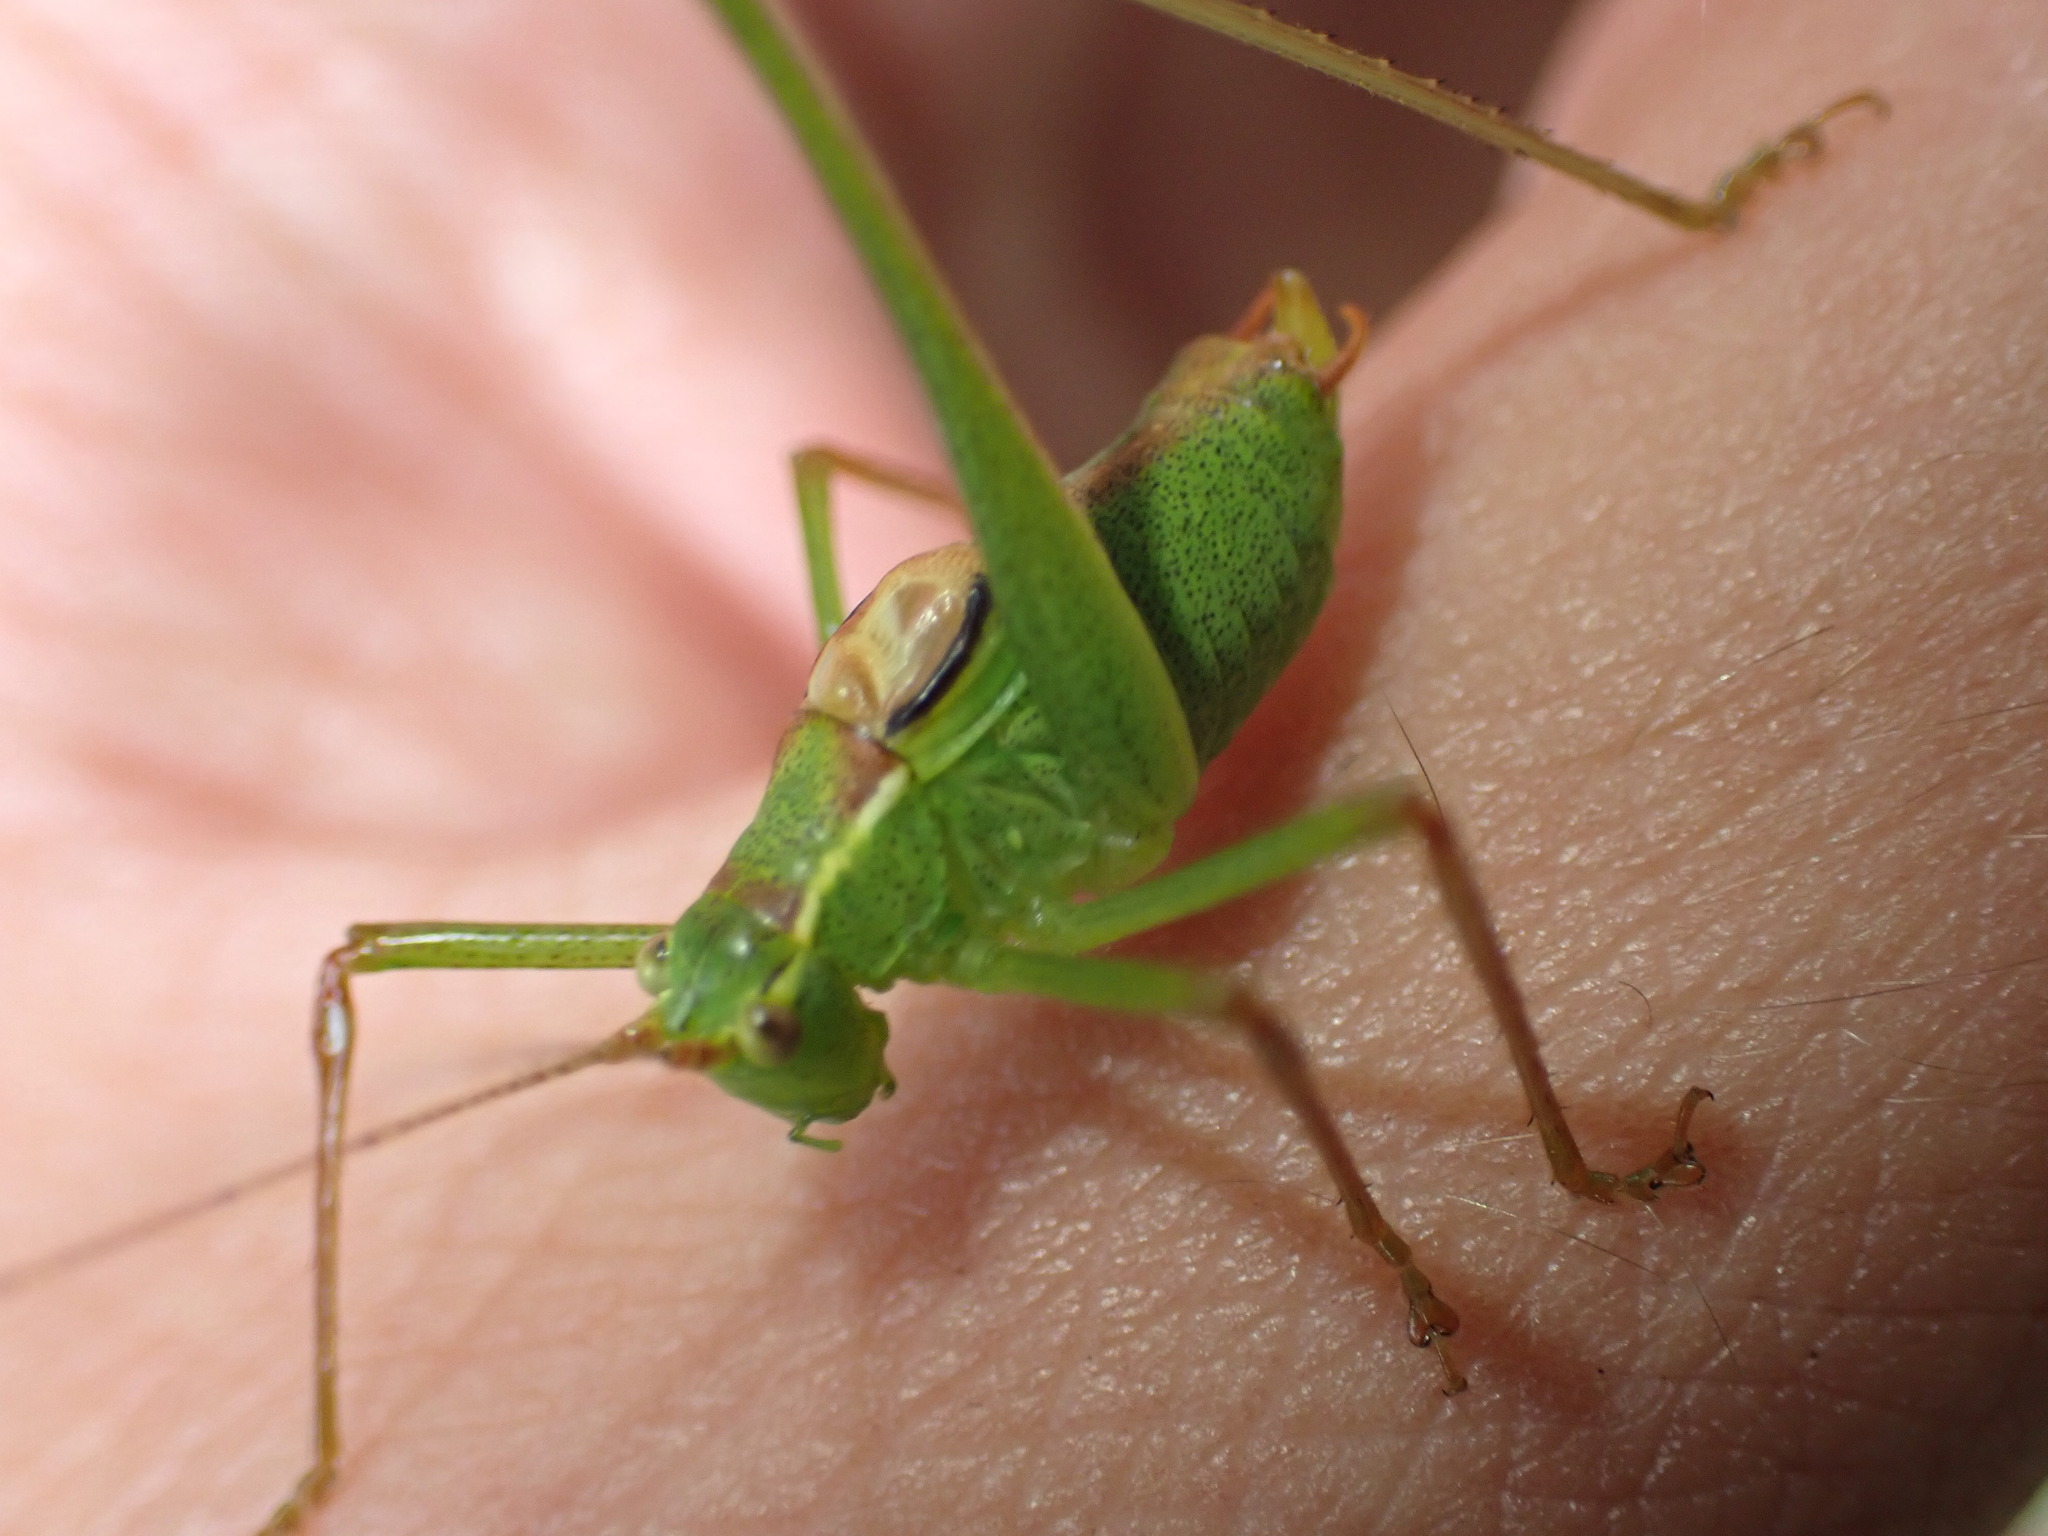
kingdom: Animalia
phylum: Arthropoda
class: Insecta
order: Orthoptera
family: Tettigoniidae
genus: Leptophyes
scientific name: Leptophyes punctatissima
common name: Speckled bush-cricket
